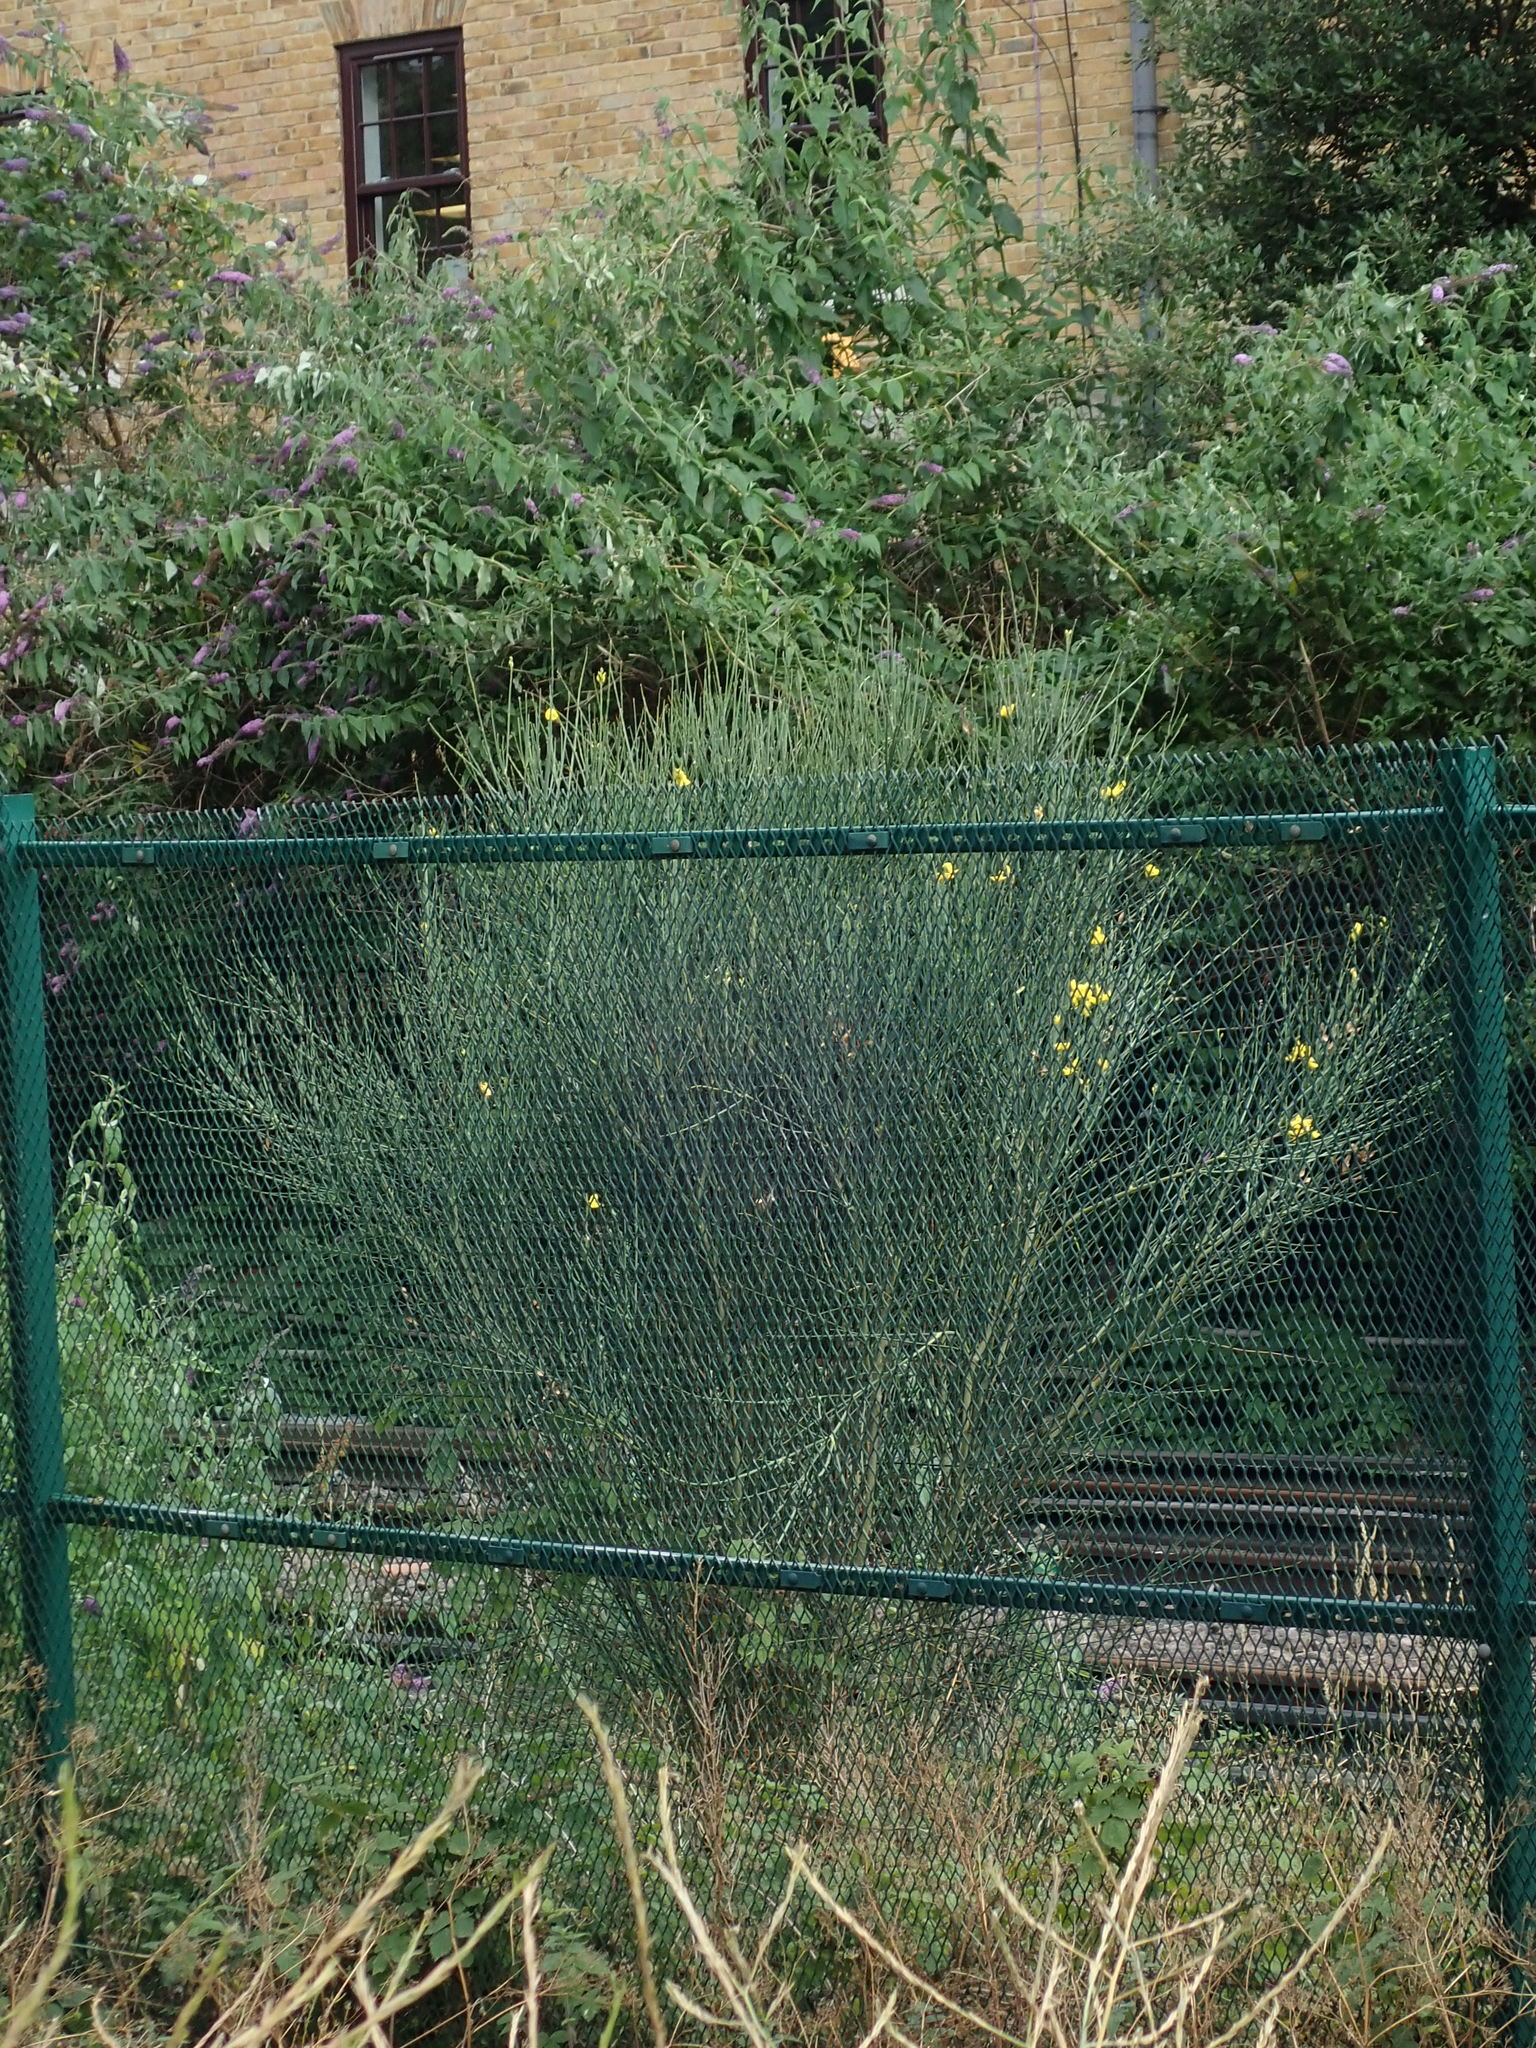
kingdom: Plantae
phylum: Tracheophyta
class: Magnoliopsida
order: Fabales
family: Fabaceae
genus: Spartium
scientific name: Spartium junceum
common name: Spanish broom
